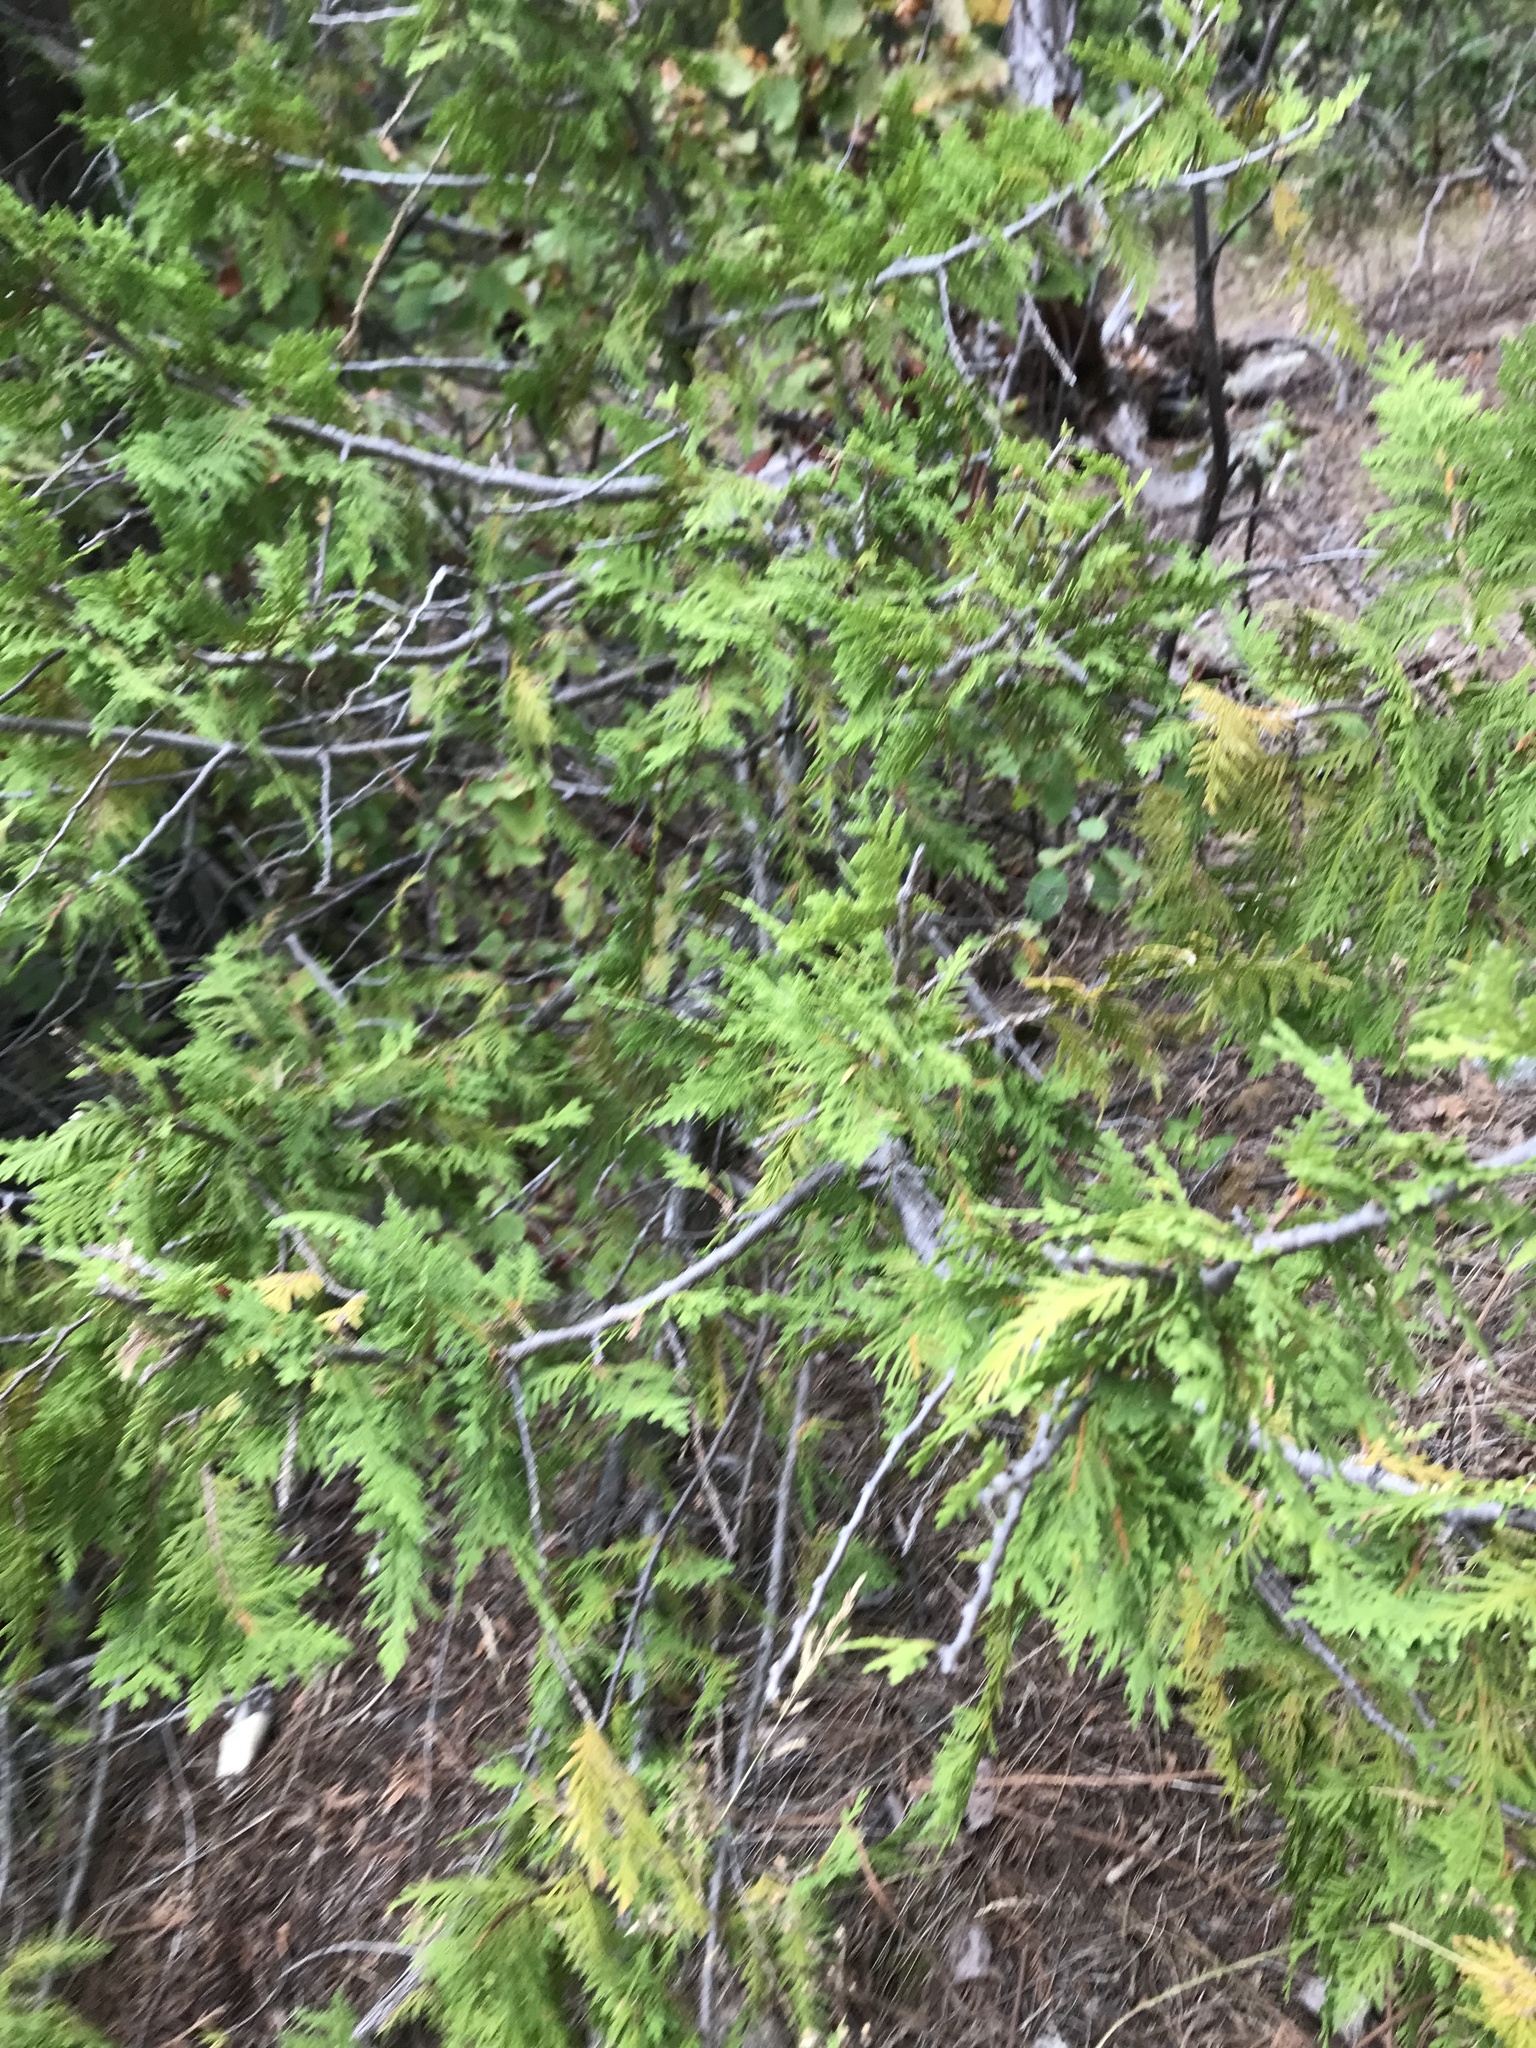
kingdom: Plantae
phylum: Tracheophyta
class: Pinopsida
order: Pinales
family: Cupressaceae
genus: Thuja
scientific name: Thuja occidentalis
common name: Northern white-cedar
